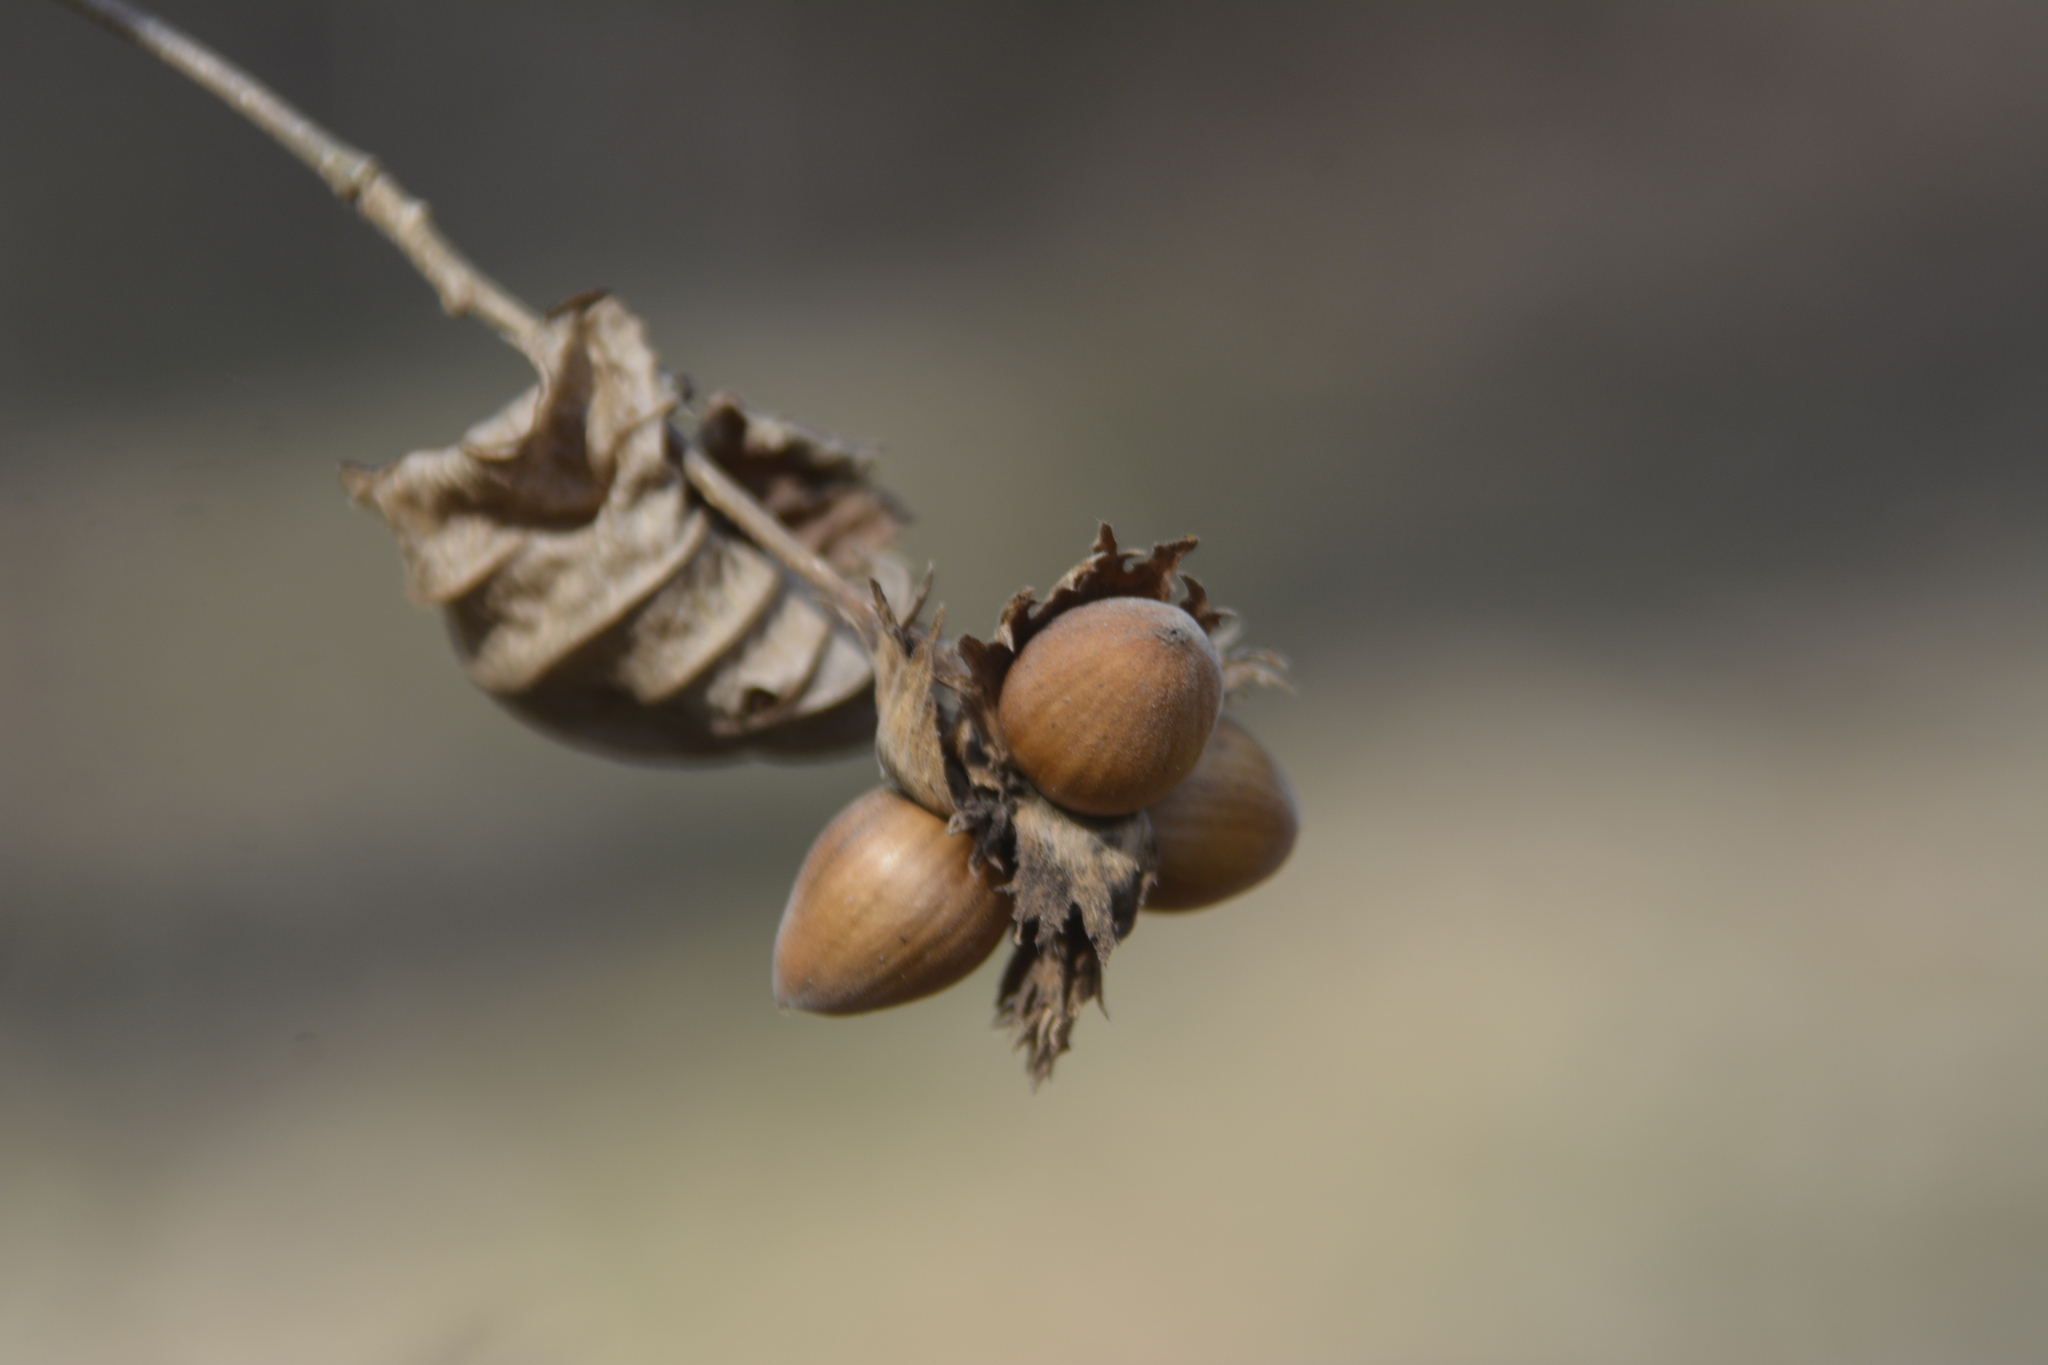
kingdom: Plantae
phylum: Tracheophyta
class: Magnoliopsida
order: Fagales
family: Betulaceae
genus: Corylus
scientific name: Corylus avellana
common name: European hazel
